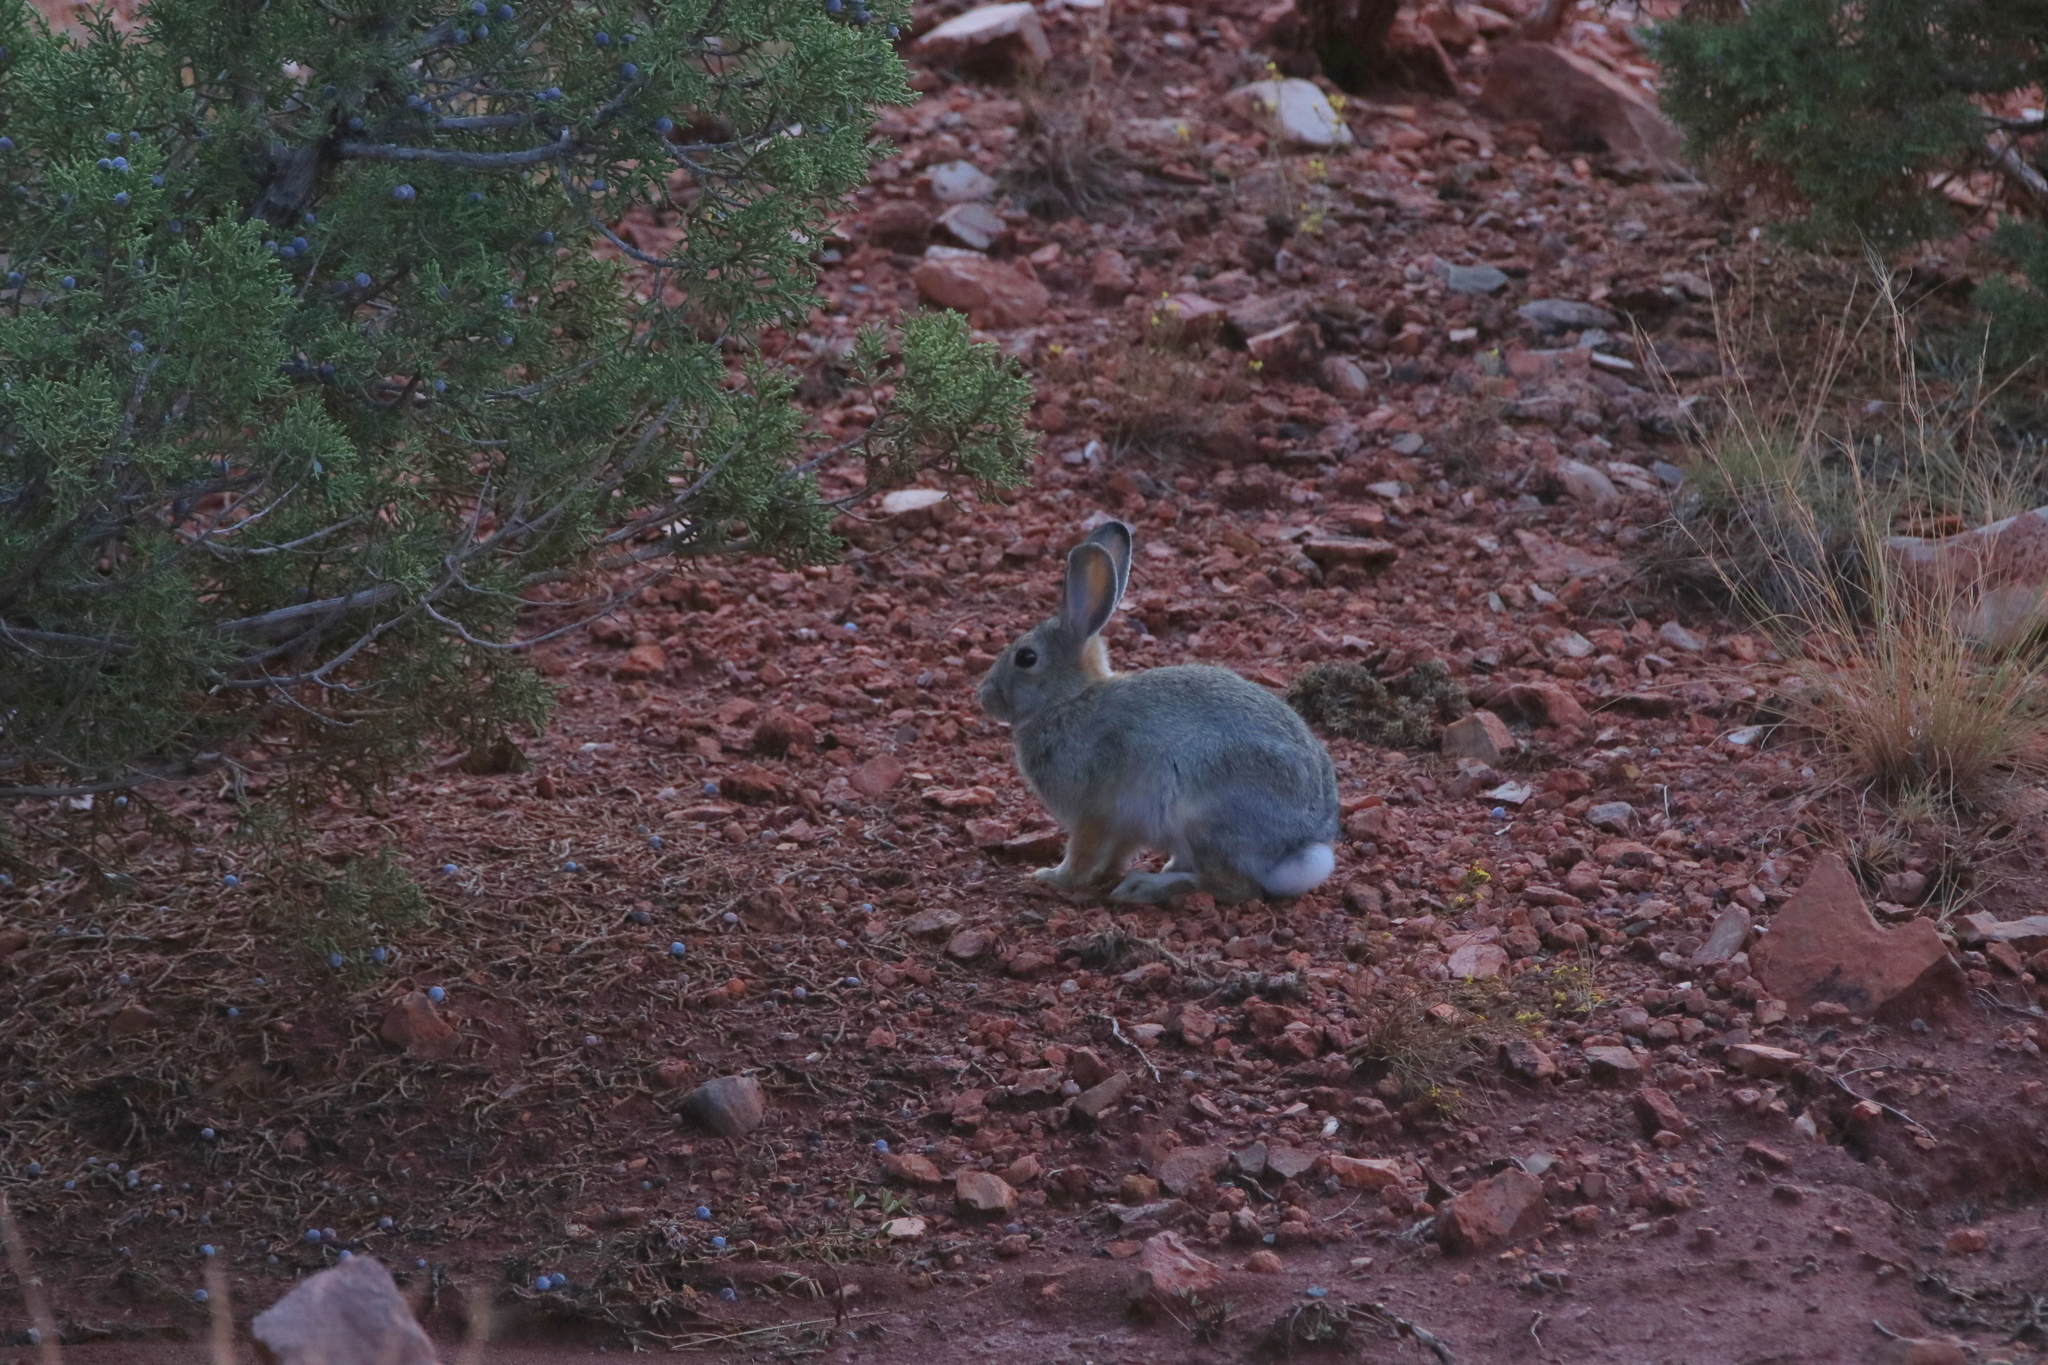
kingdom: Animalia
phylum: Chordata
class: Mammalia
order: Lagomorpha
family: Leporidae
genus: Sylvilagus
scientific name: Sylvilagus audubonii
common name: Desert cottontail
